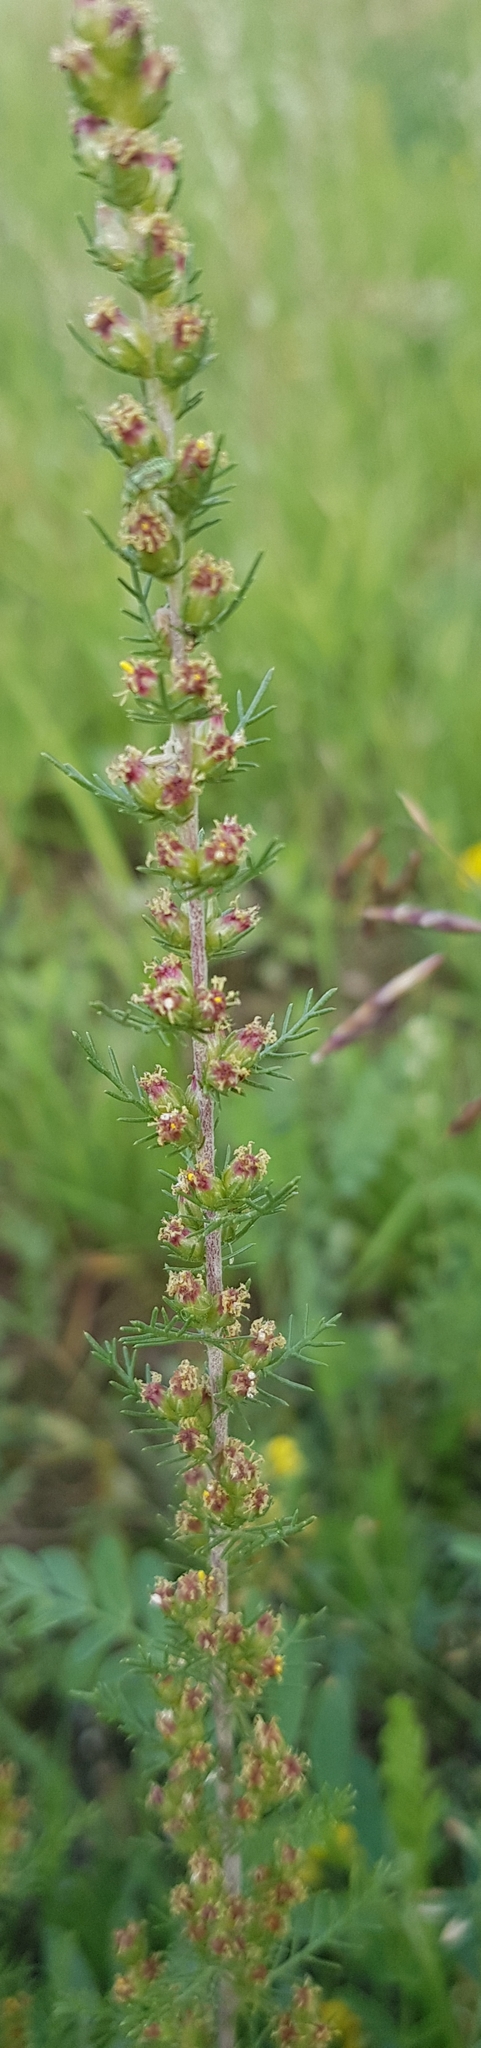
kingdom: Plantae
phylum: Tracheophyta
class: Magnoliopsida
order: Asterales
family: Asteraceae
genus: Neopallasia
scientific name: Neopallasia pectinata
